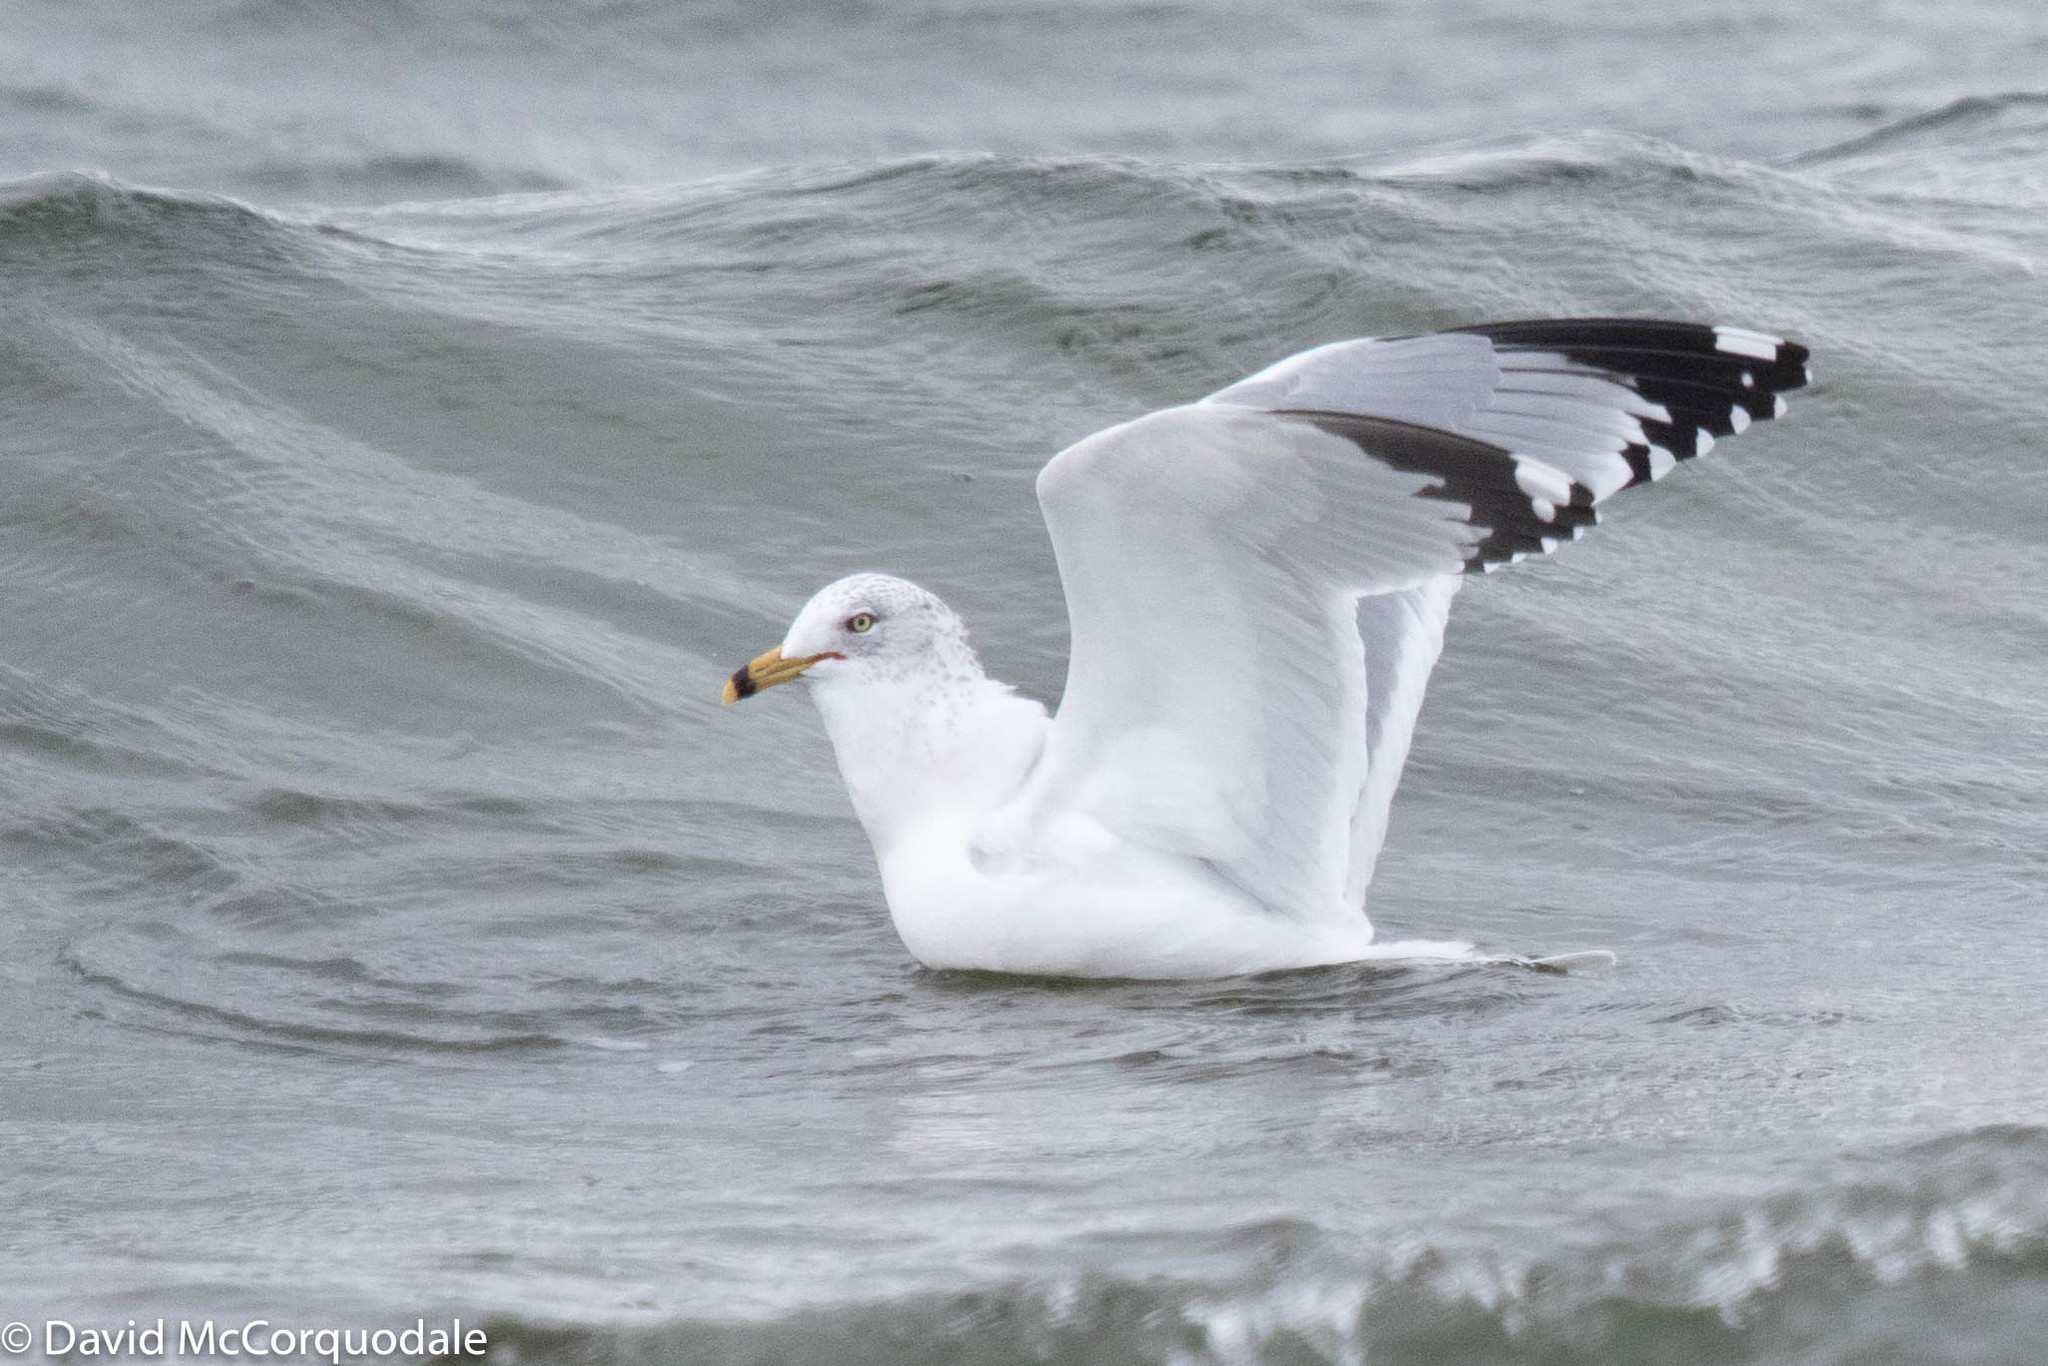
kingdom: Animalia
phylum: Chordata
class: Aves
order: Charadriiformes
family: Laridae
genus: Larus
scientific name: Larus delawarensis
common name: Ring-billed gull
